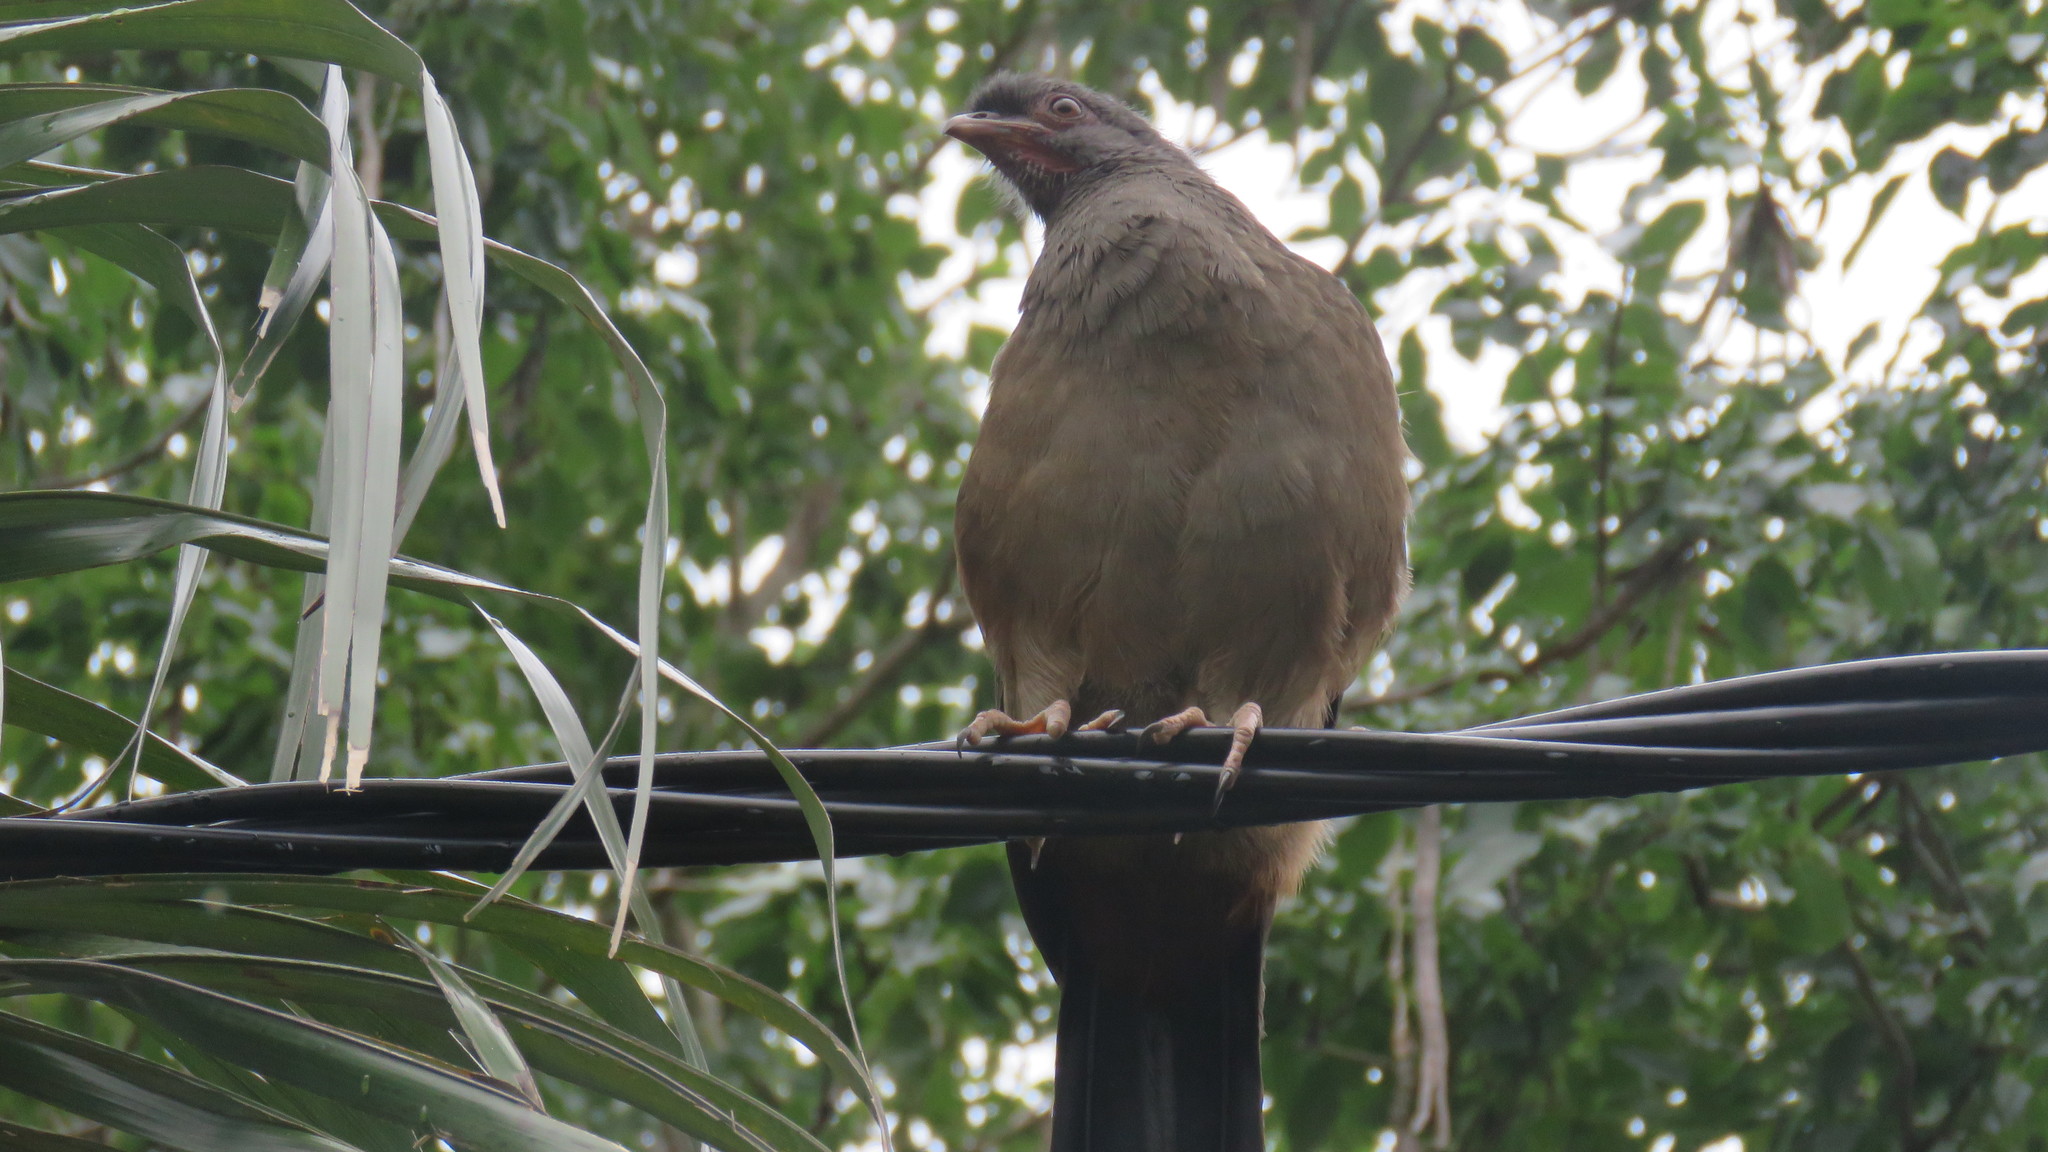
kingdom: Animalia
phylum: Chordata
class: Aves
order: Galliformes
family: Cracidae
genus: Ortalis
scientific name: Ortalis canicollis
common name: Chaco chachalaca
